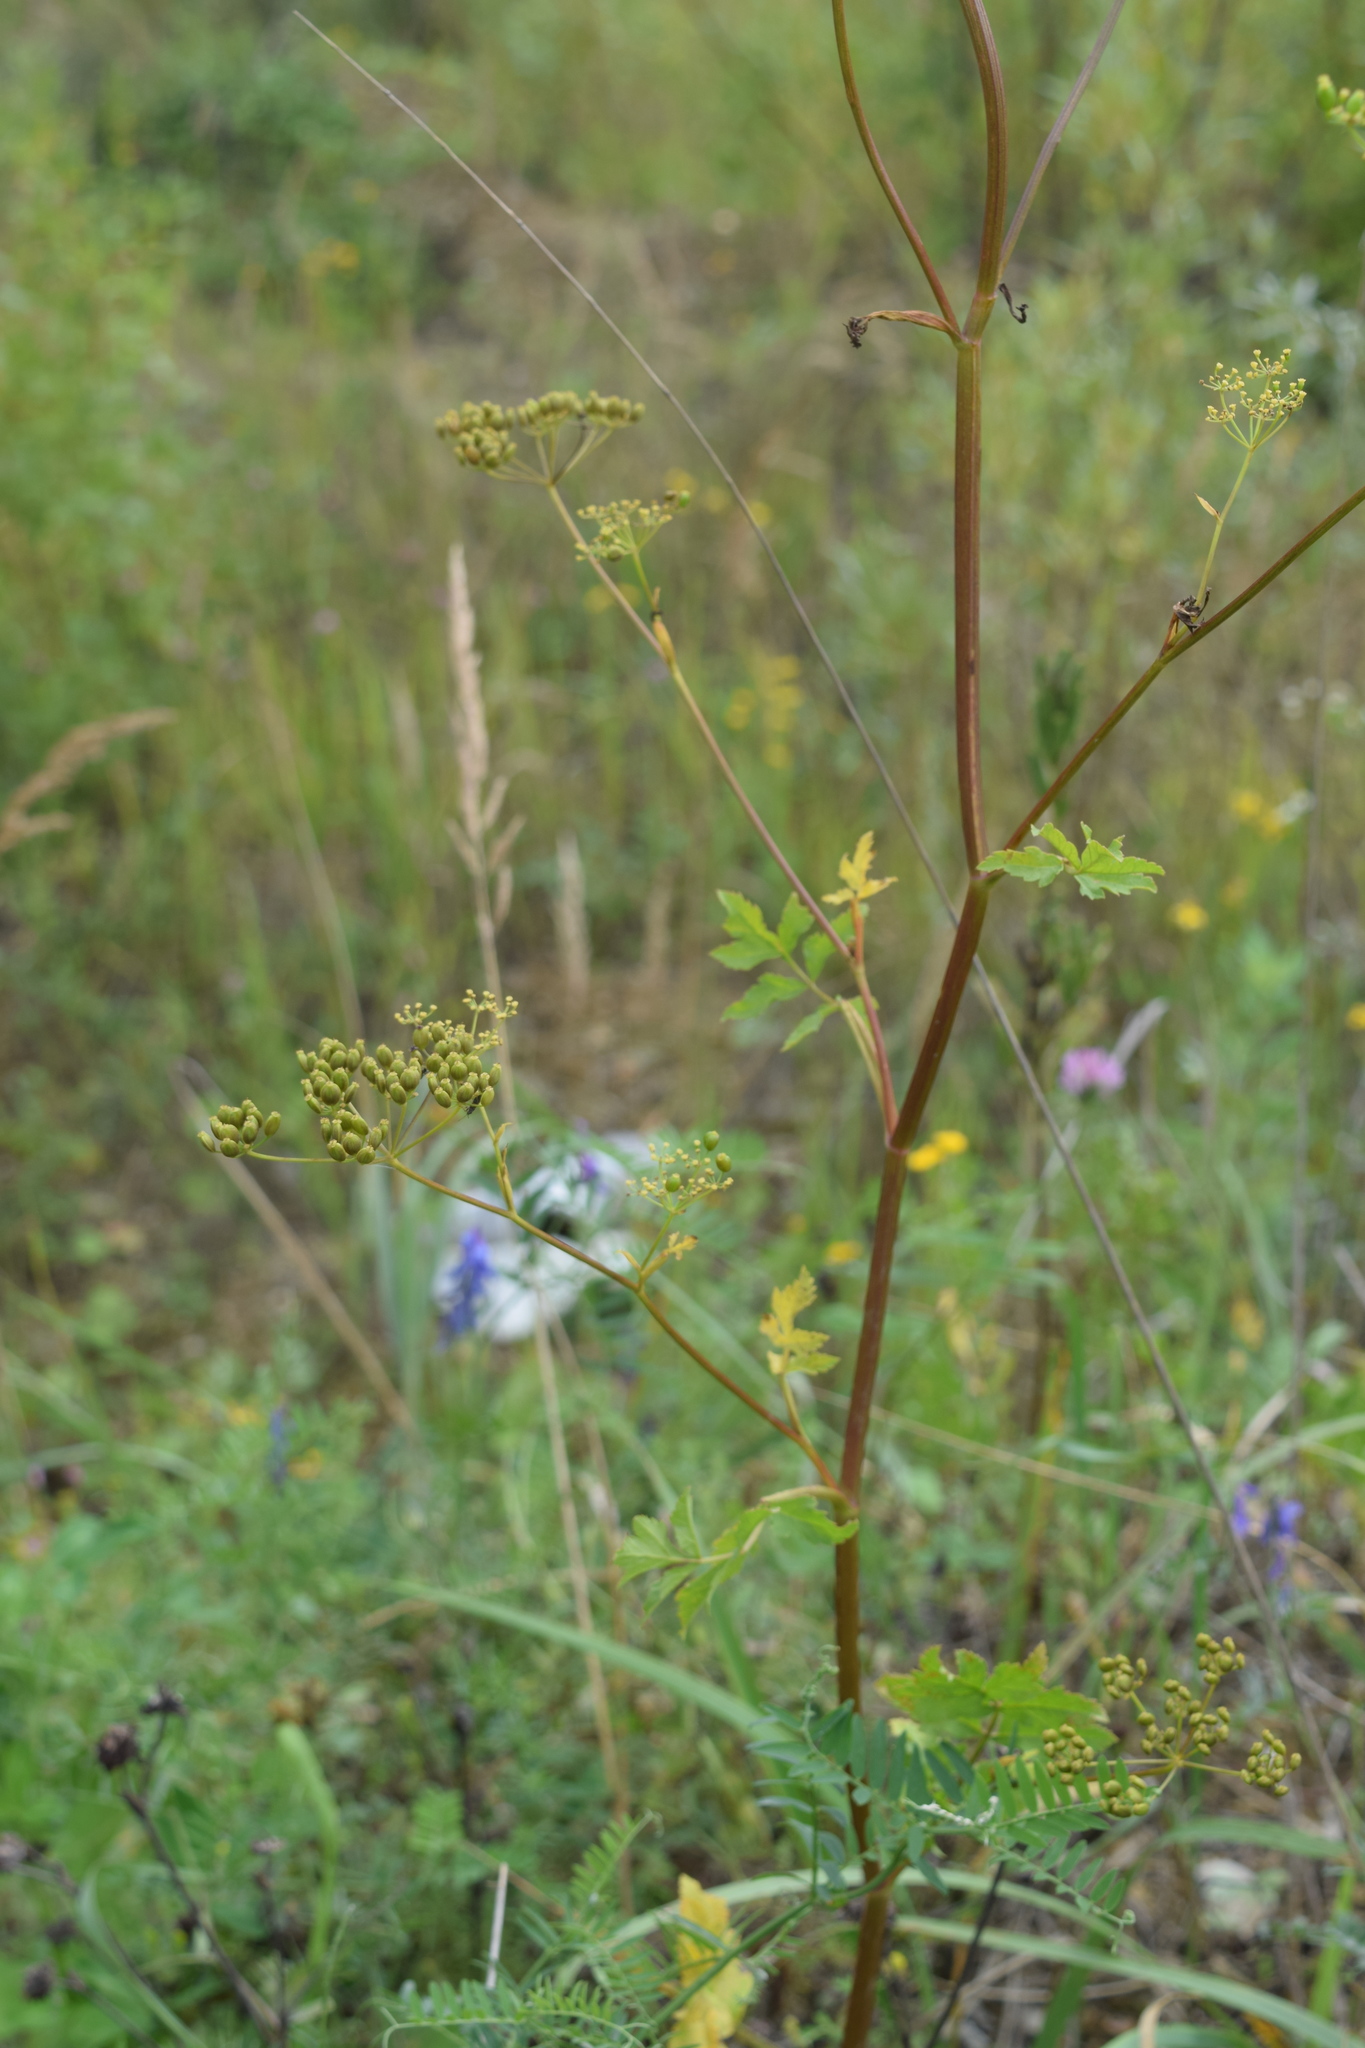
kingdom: Plantae
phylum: Tracheophyta
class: Magnoliopsida
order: Apiales
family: Apiaceae
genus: Pastinaca
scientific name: Pastinaca sativa
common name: Wild parsnip
